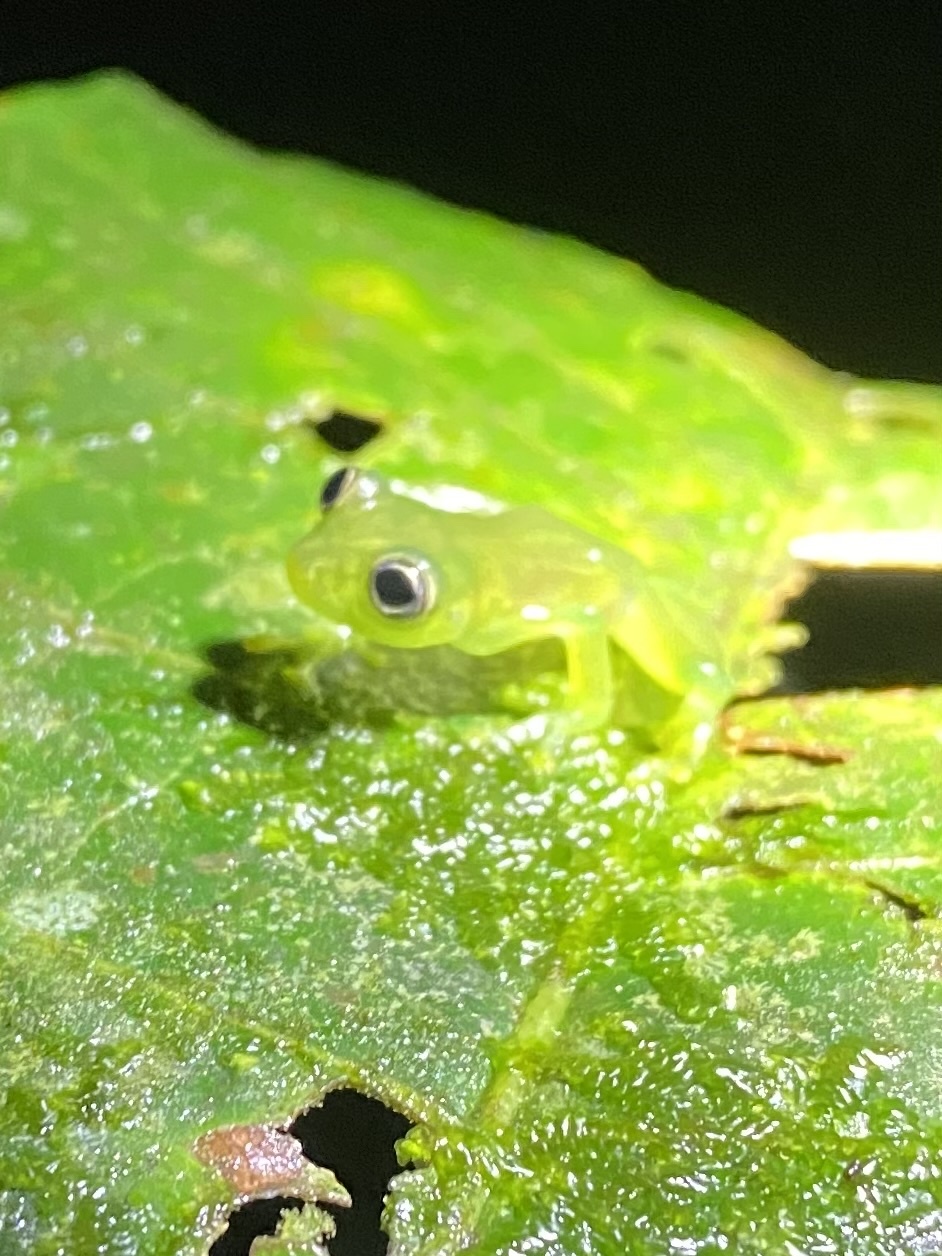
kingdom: Animalia
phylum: Chordata
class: Amphibia
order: Anura
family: Centrolenidae
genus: Teratohyla
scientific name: Teratohyla spinosa
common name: Spiny cochran frog
